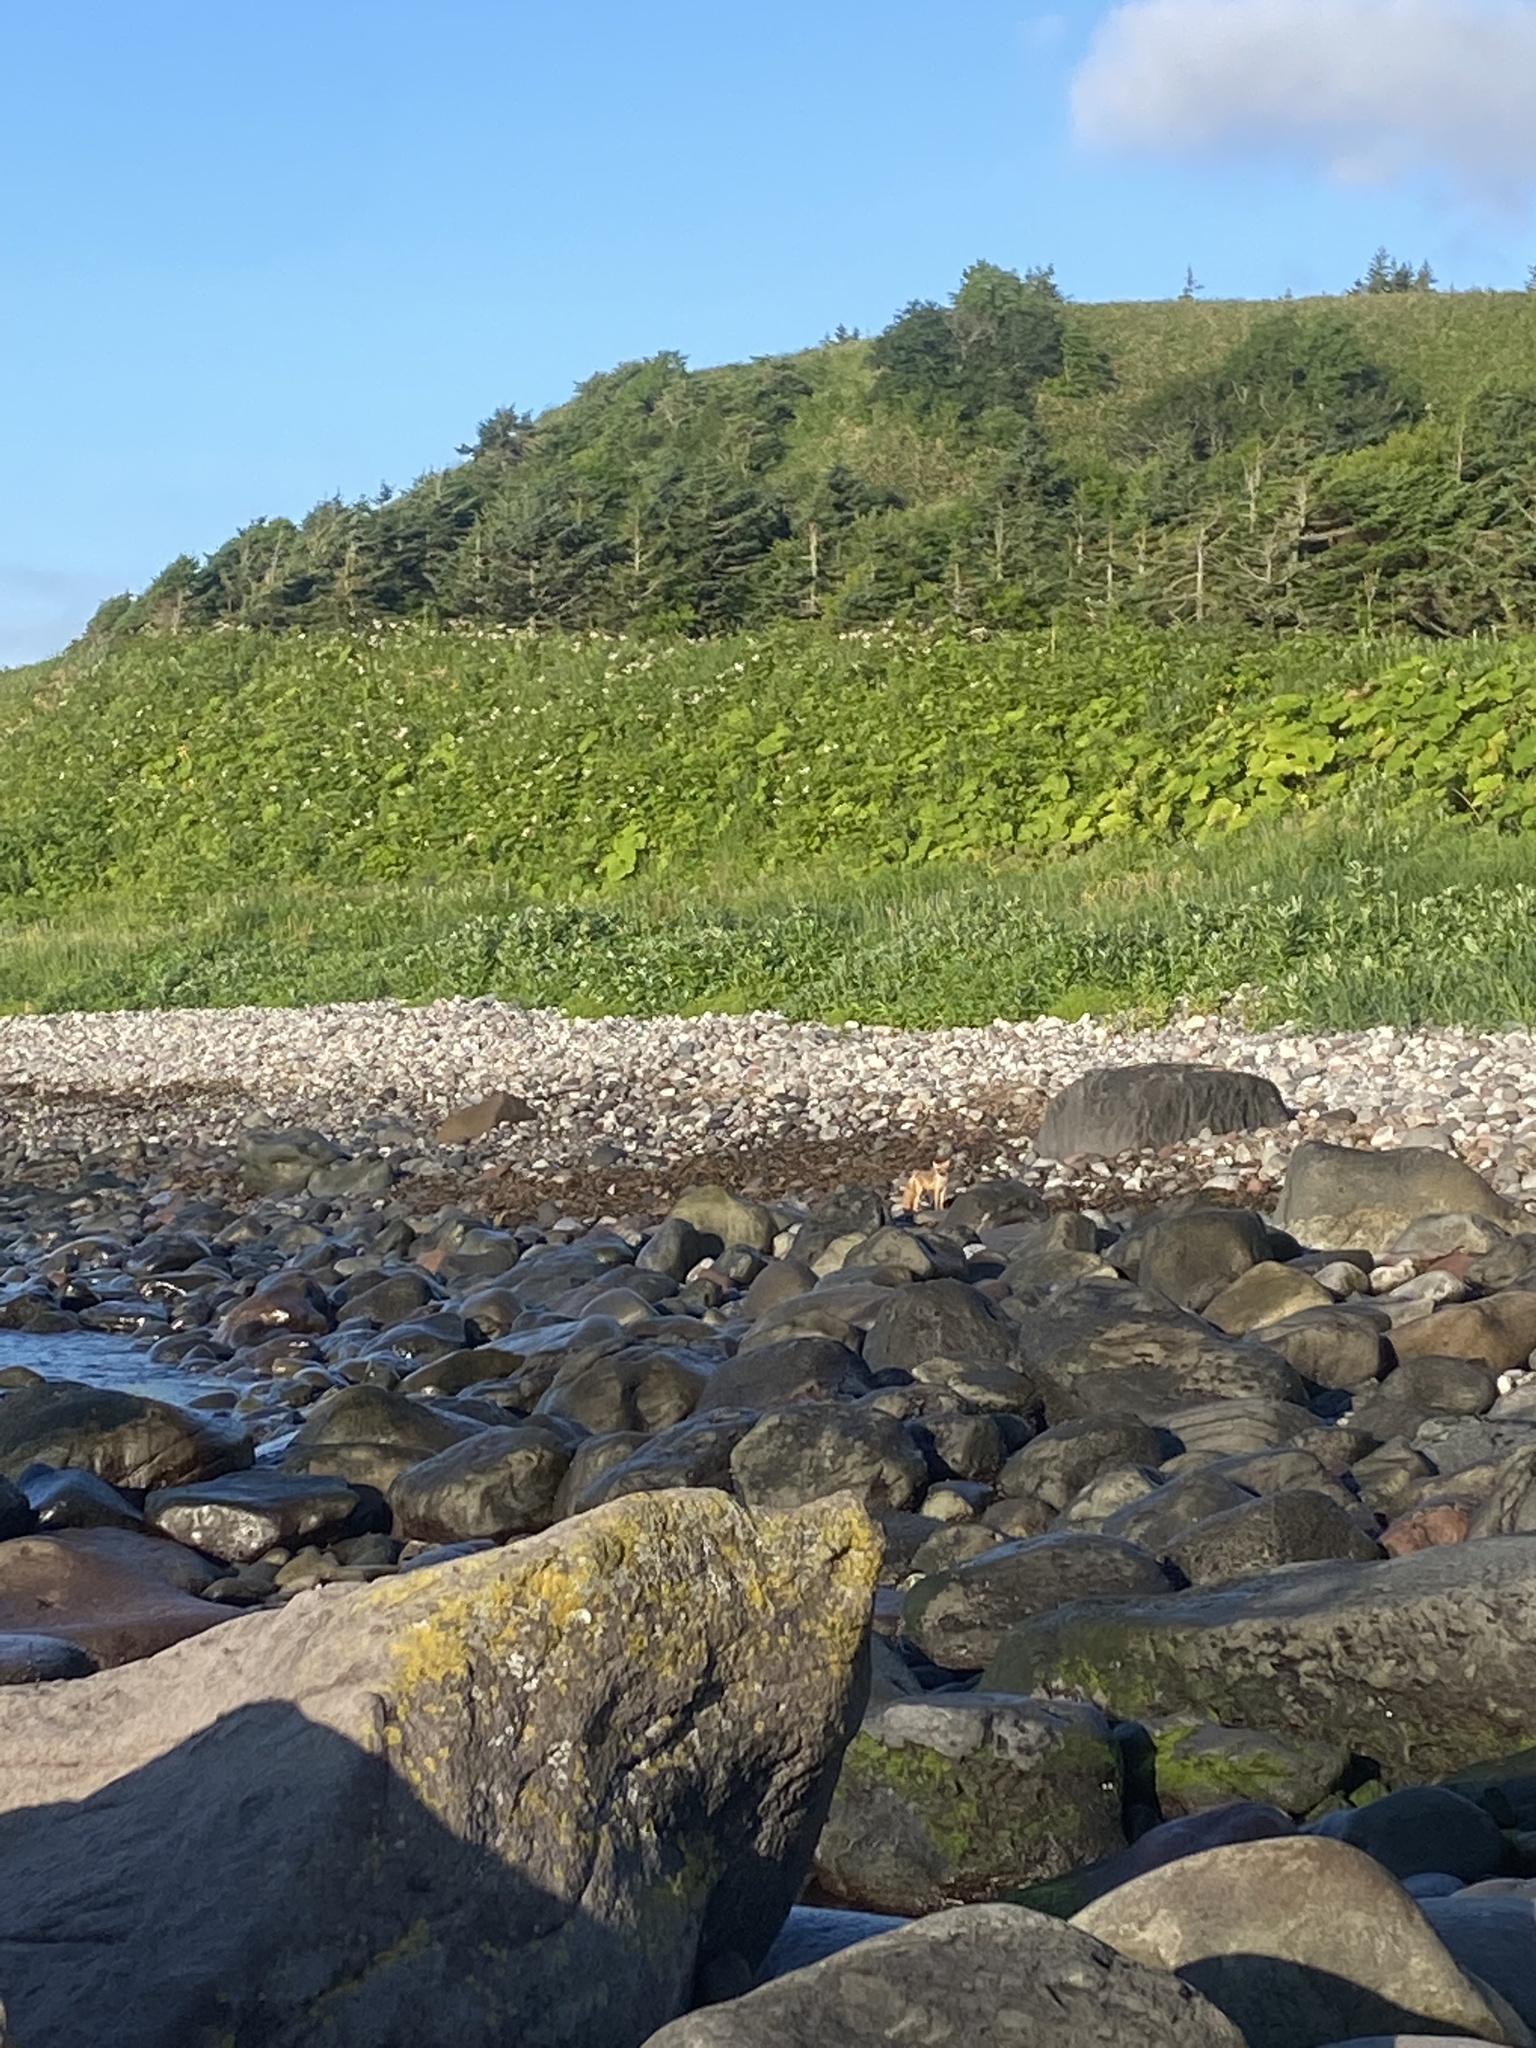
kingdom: Animalia
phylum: Chordata
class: Mammalia
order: Carnivora
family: Canidae
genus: Vulpes
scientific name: Vulpes vulpes
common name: Red fox
